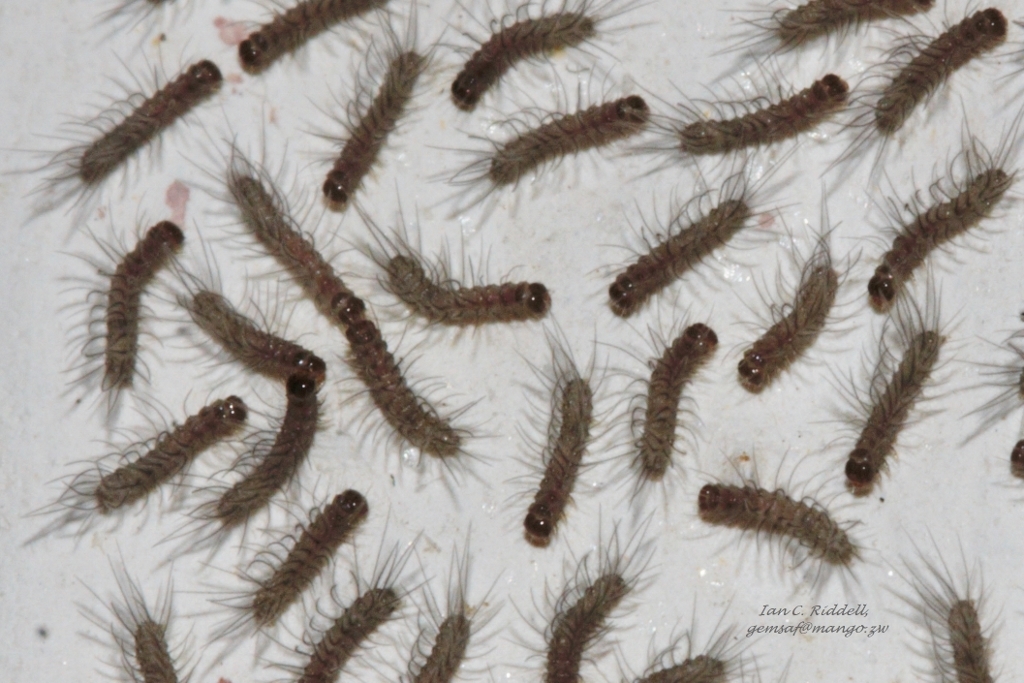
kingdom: Animalia
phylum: Arthropoda
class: Insecta
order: Lepidoptera
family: Erebidae
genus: Amata
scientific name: Amata cerbera
